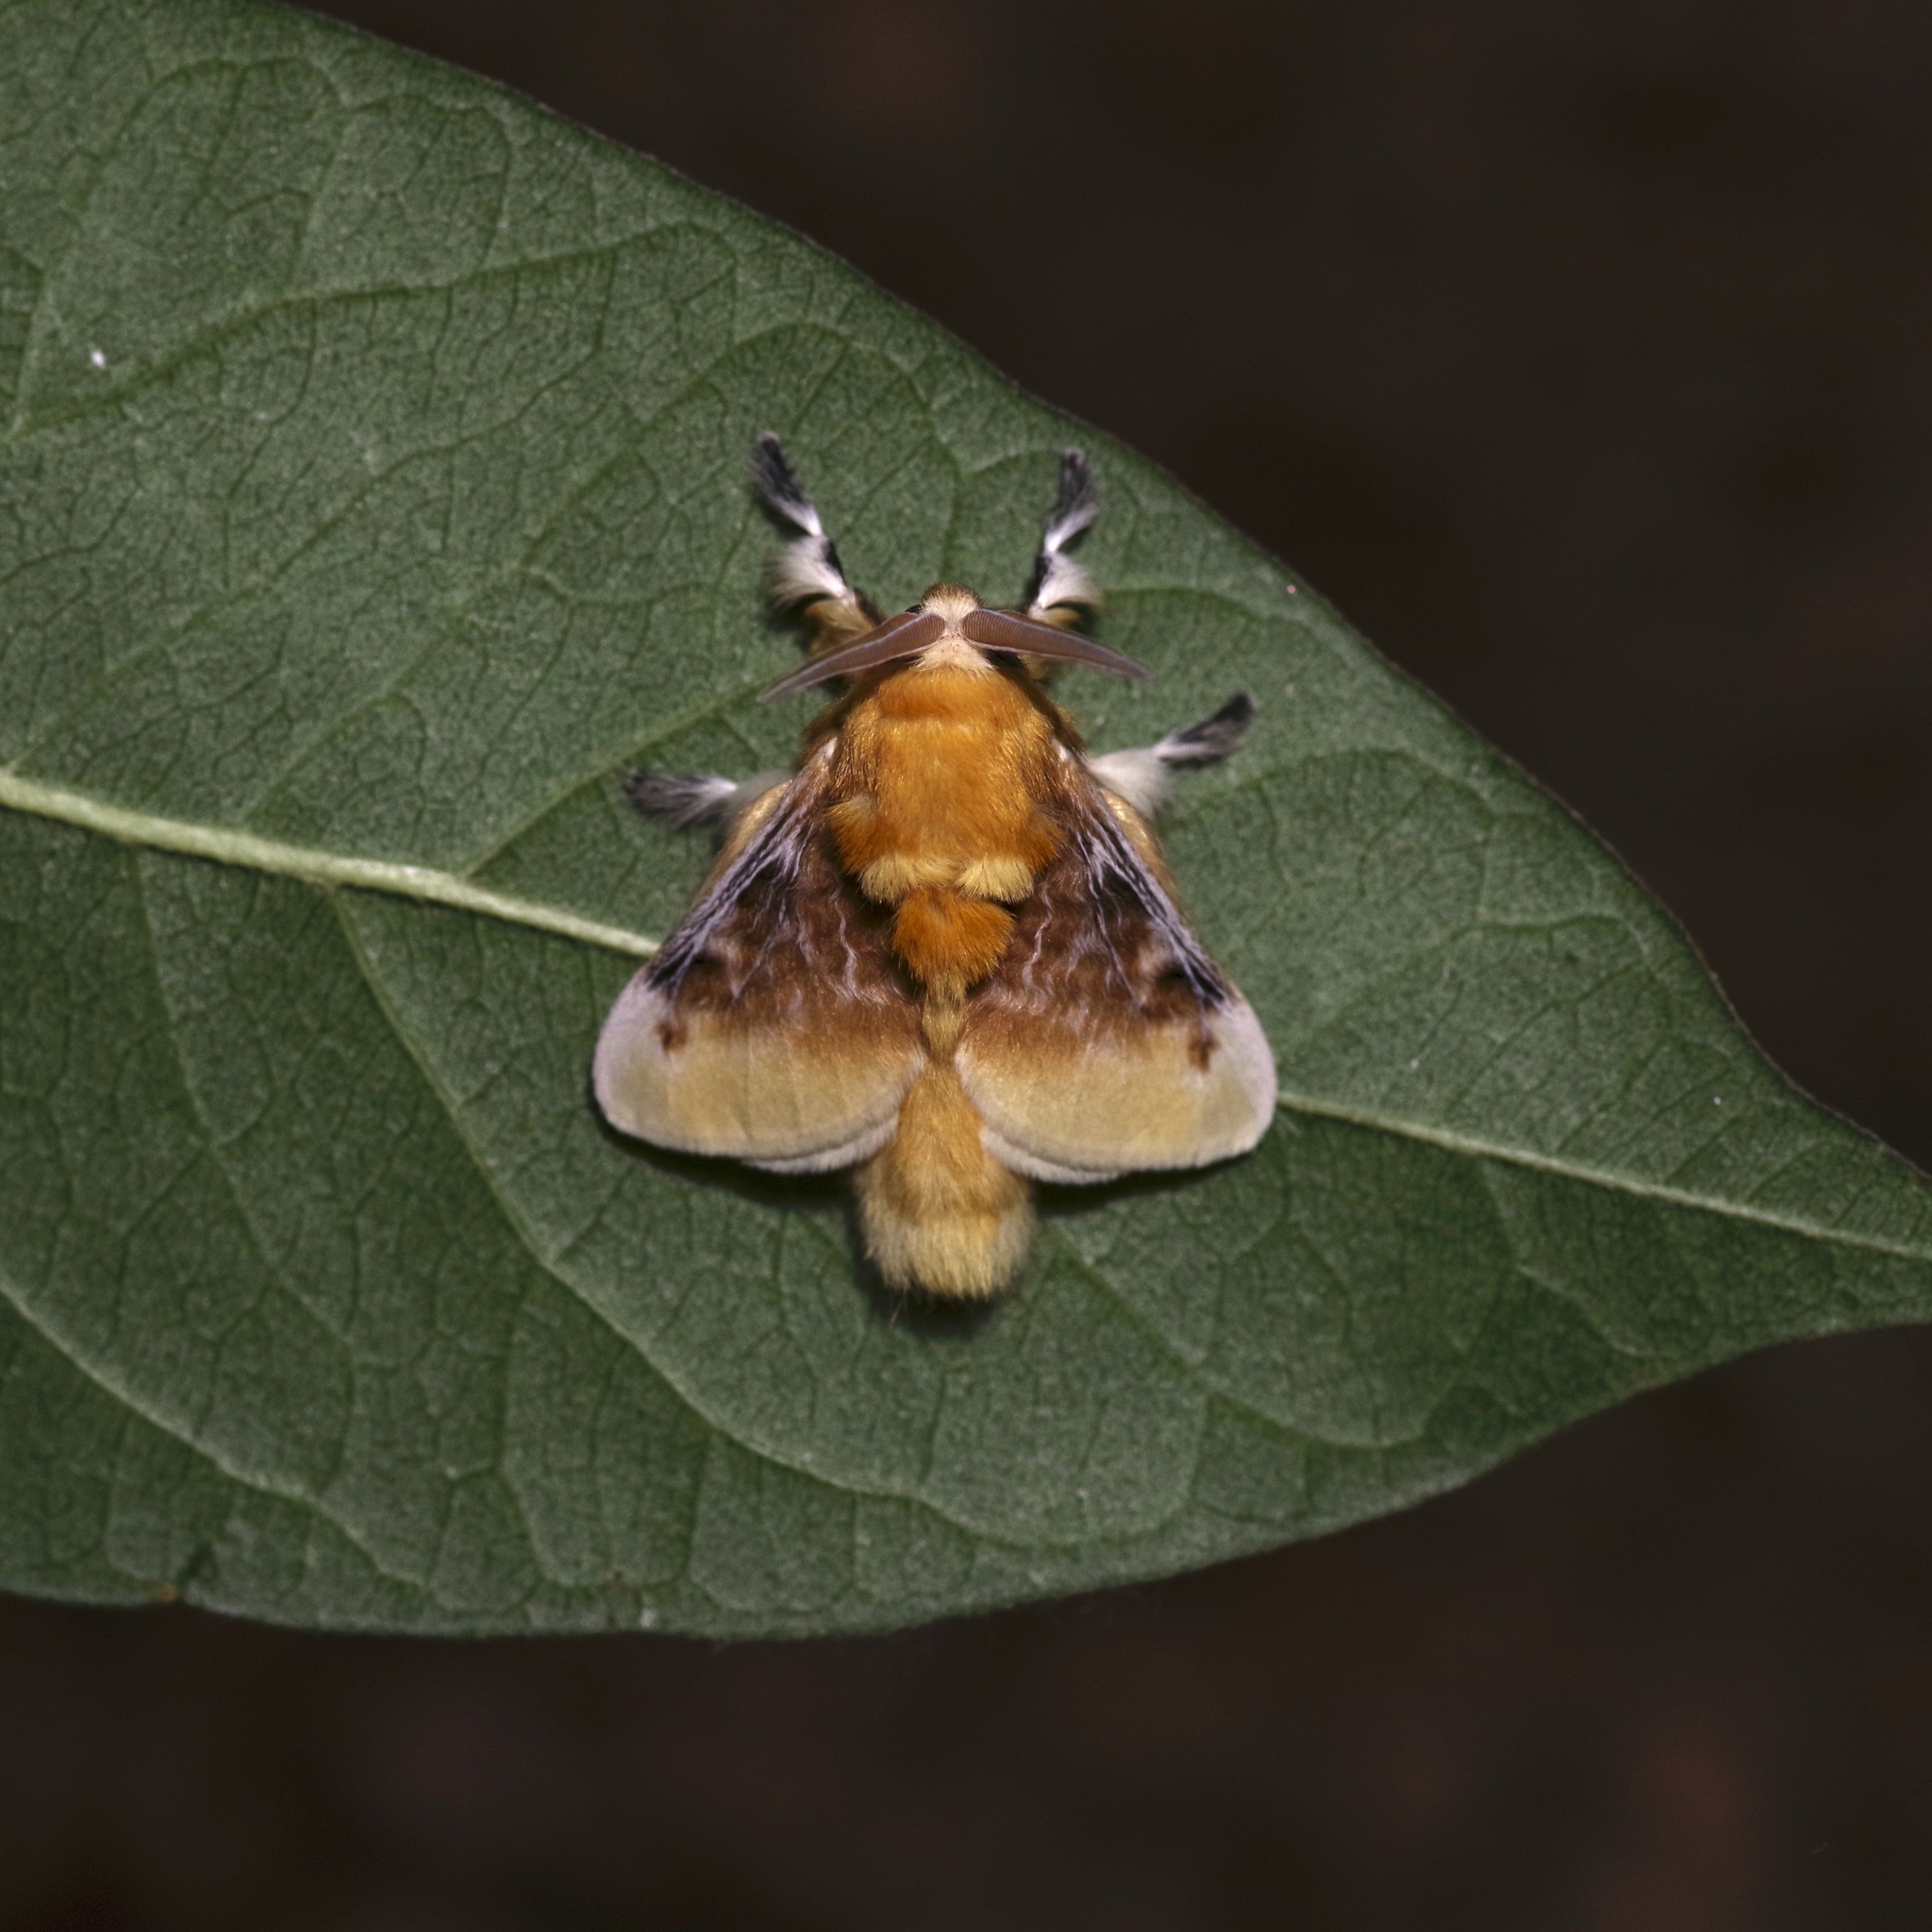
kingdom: Animalia
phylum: Arthropoda
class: Insecta
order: Lepidoptera
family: Megalopygidae
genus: Megalopyge
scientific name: Megalopyge opercularis
